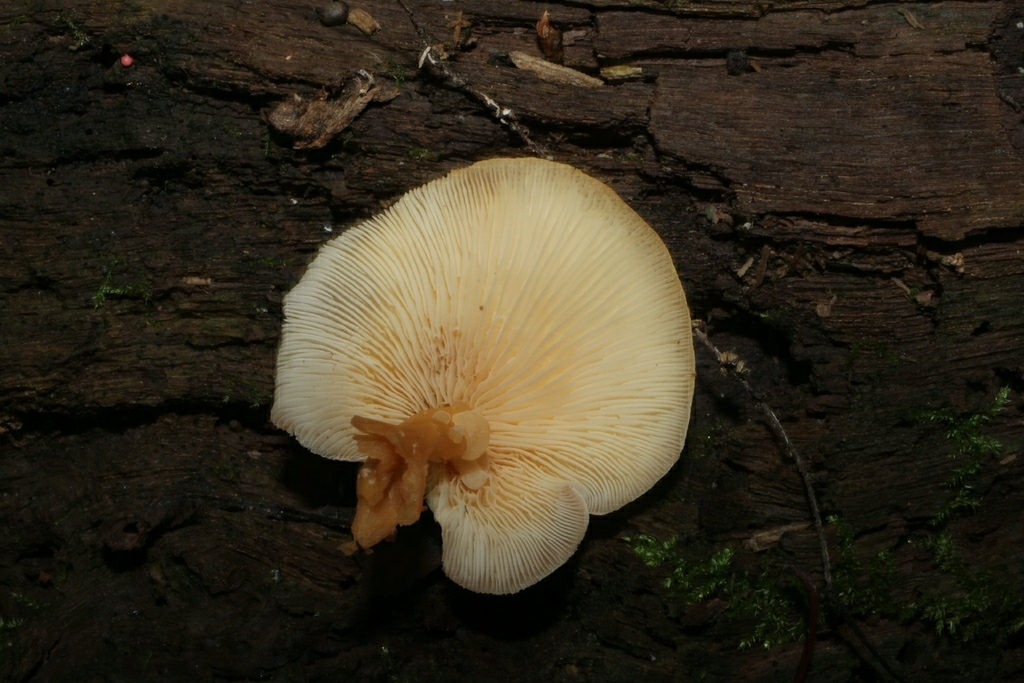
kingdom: Fungi
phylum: Basidiomycota
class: Tremellomycetes
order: Filobasidiales
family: Filobasidiaceae
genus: Syzygospora
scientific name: Syzygospora mycetophila
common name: Collybia clouds
